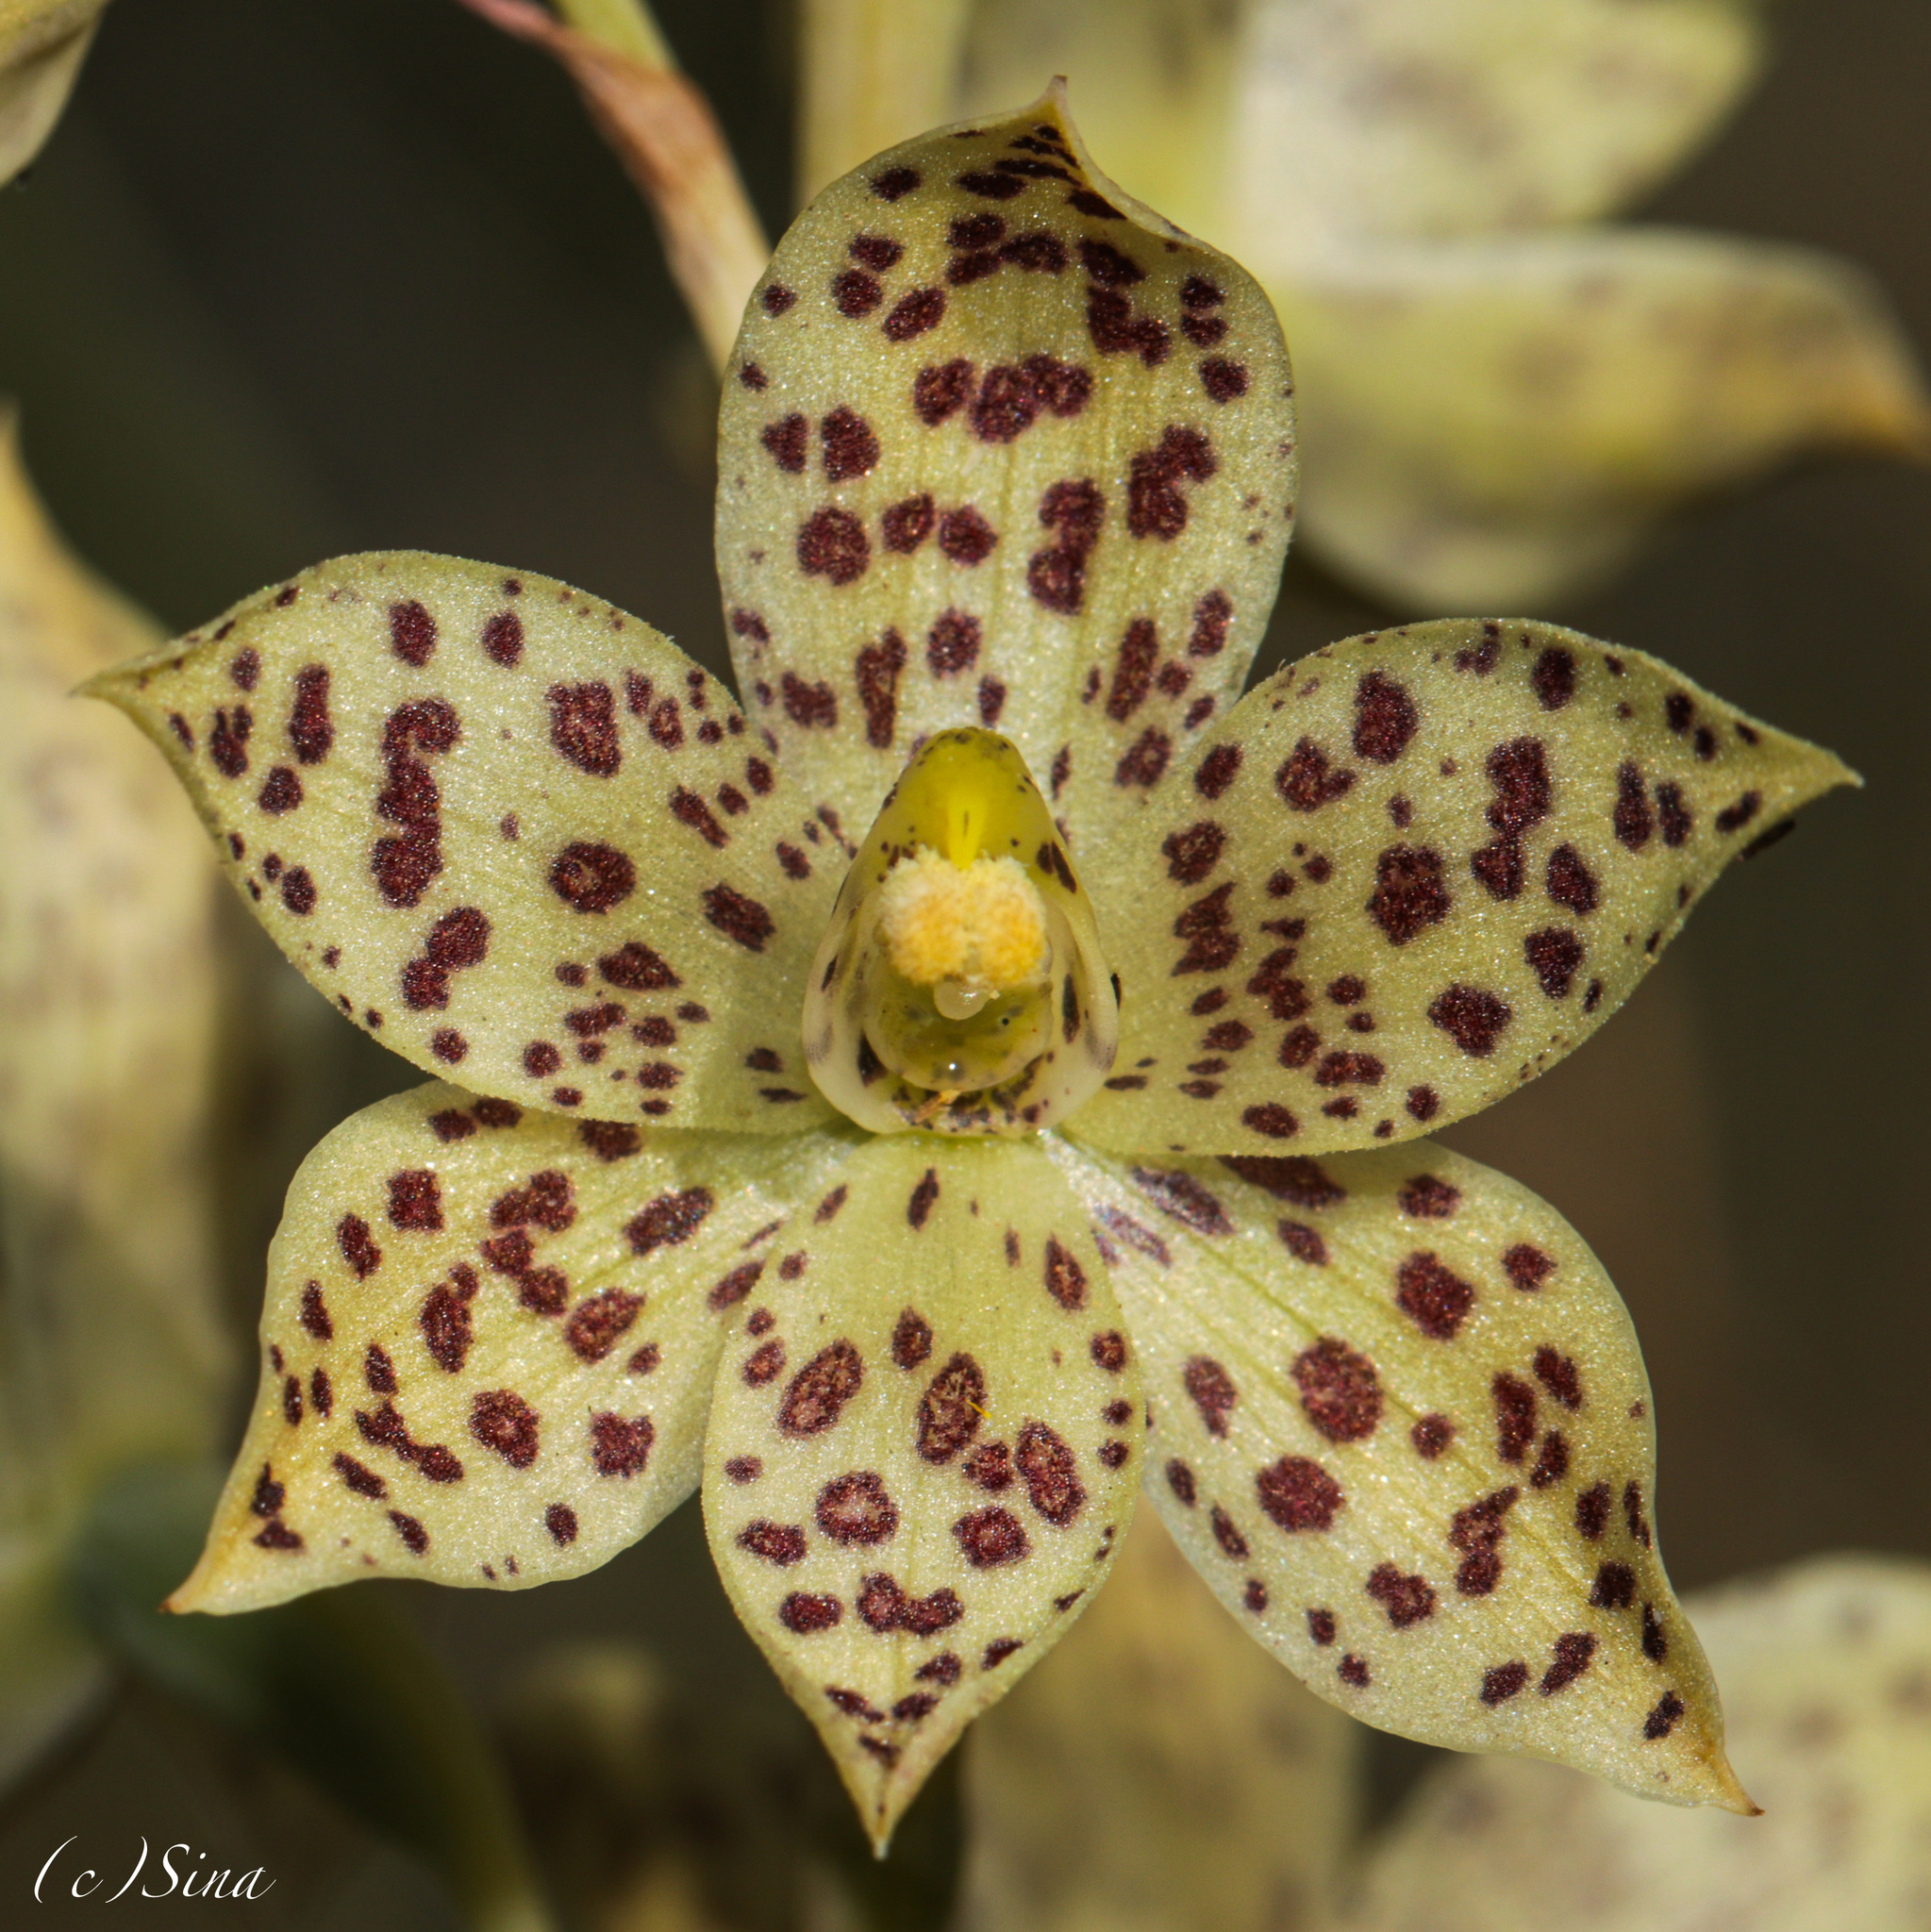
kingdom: Plantae
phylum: Tracheophyta
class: Liliopsida
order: Asparagales
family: Orchidaceae
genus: Thelymitra
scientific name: Thelymitra sargentii
